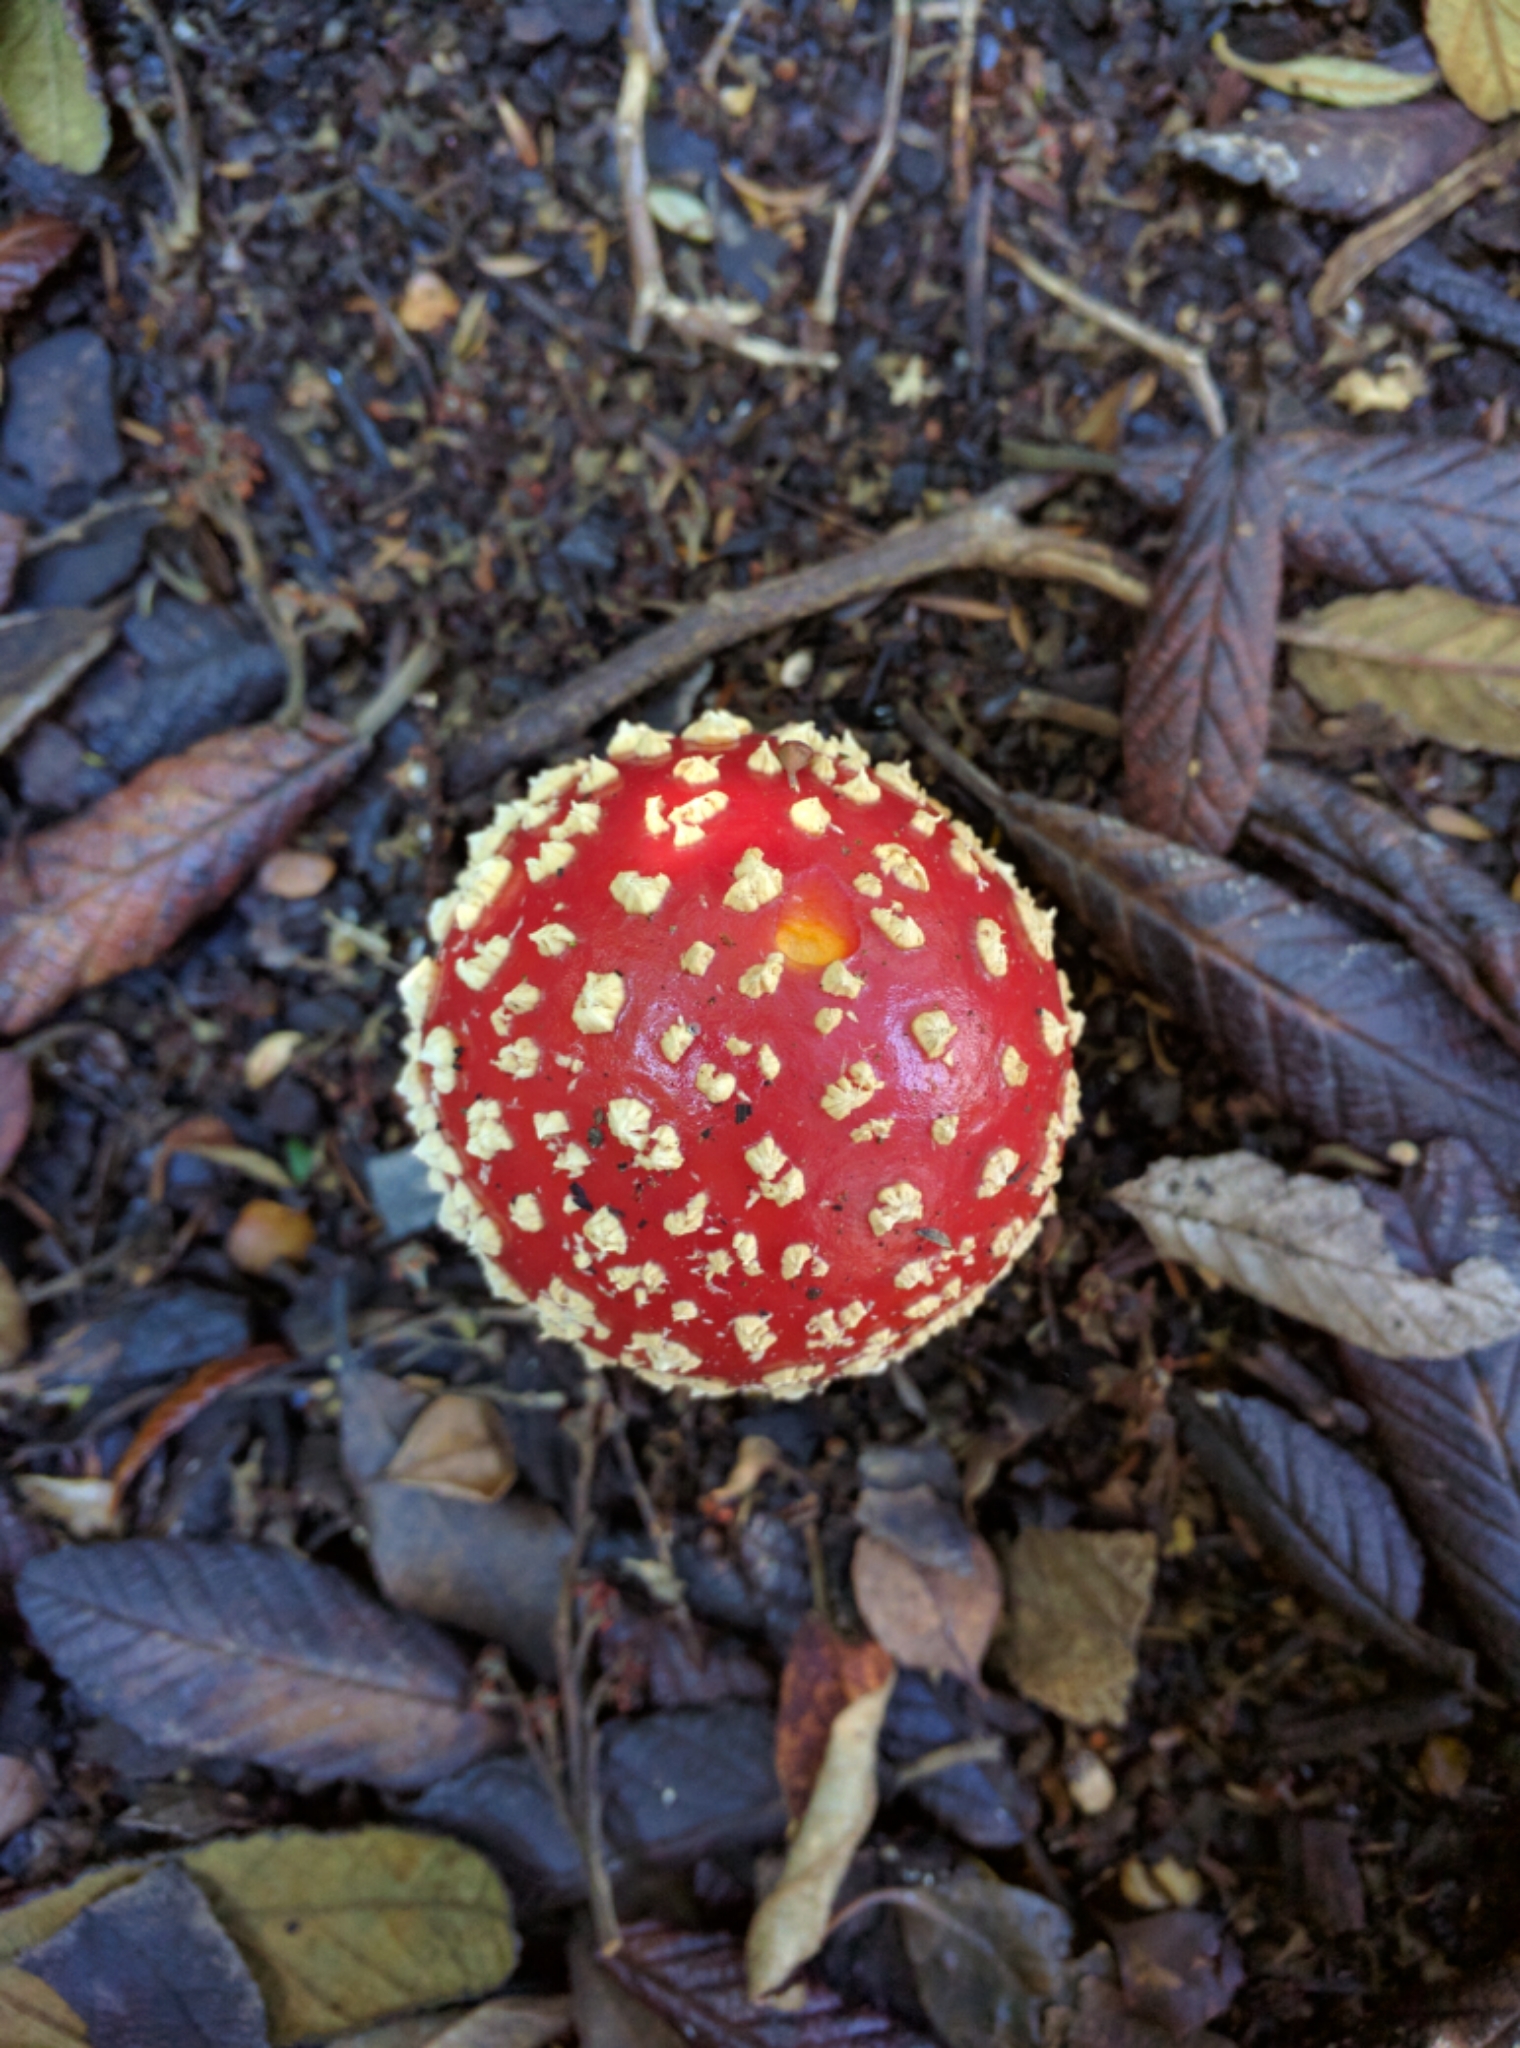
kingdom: Fungi
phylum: Basidiomycota
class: Agaricomycetes
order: Agaricales
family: Amanitaceae
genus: Amanita
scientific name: Amanita muscaria
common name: Fly agaric
